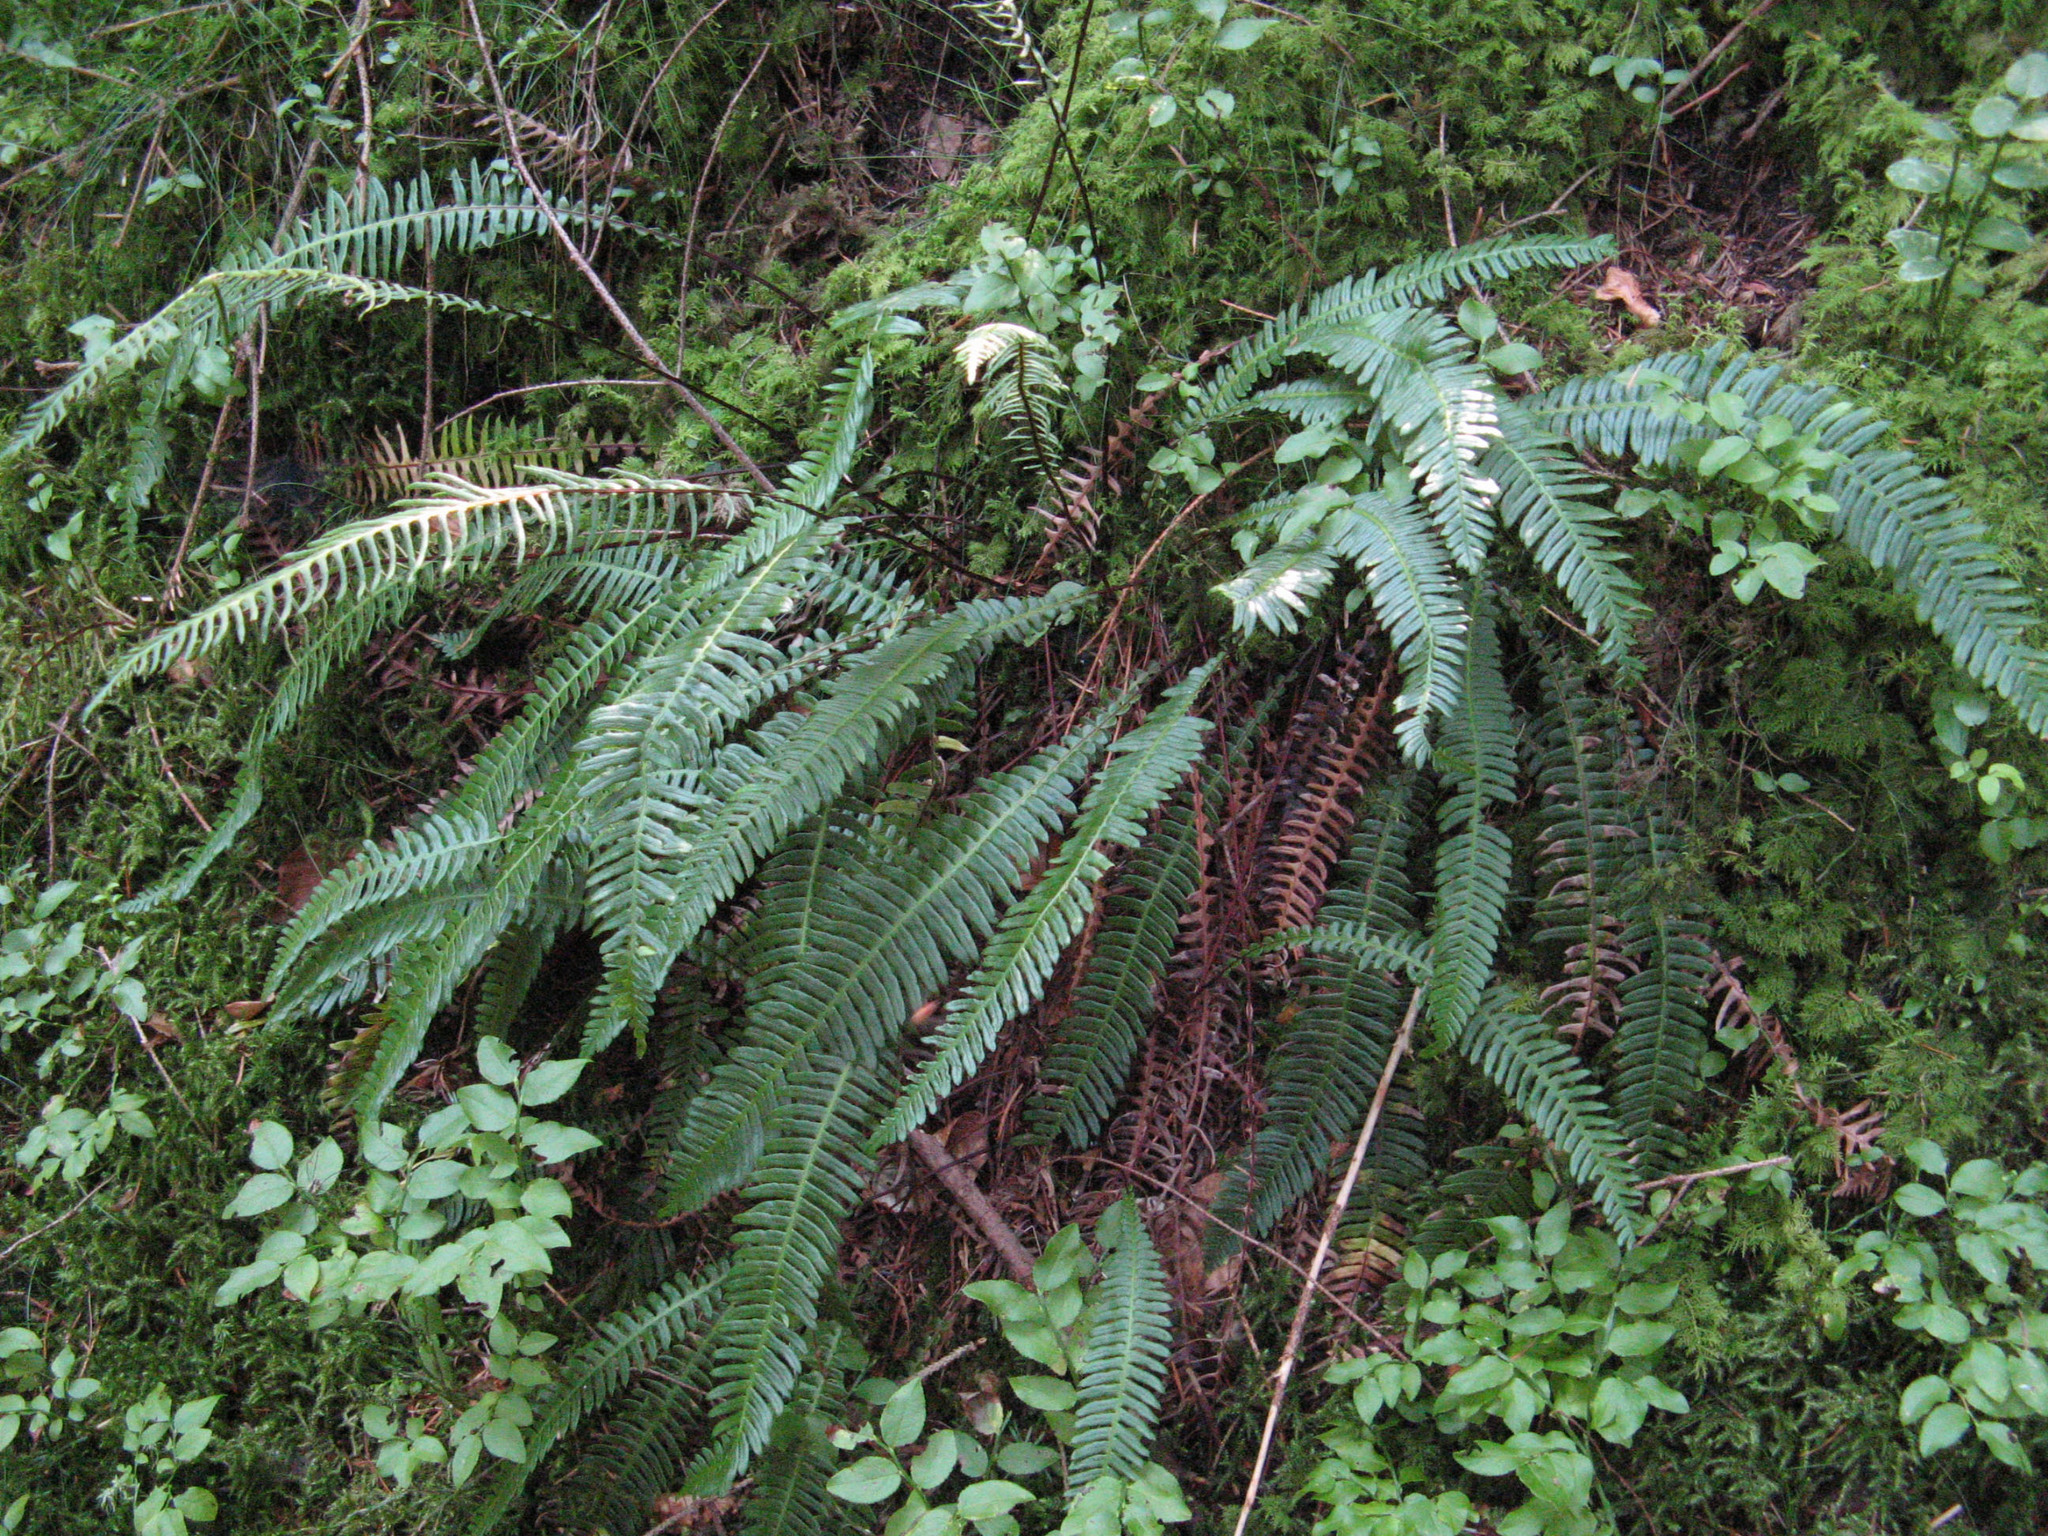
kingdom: Plantae
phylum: Tracheophyta
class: Polypodiopsida
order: Polypodiales
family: Blechnaceae
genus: Struthiopteris
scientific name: Struthiopteris spicant
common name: Deer fern
